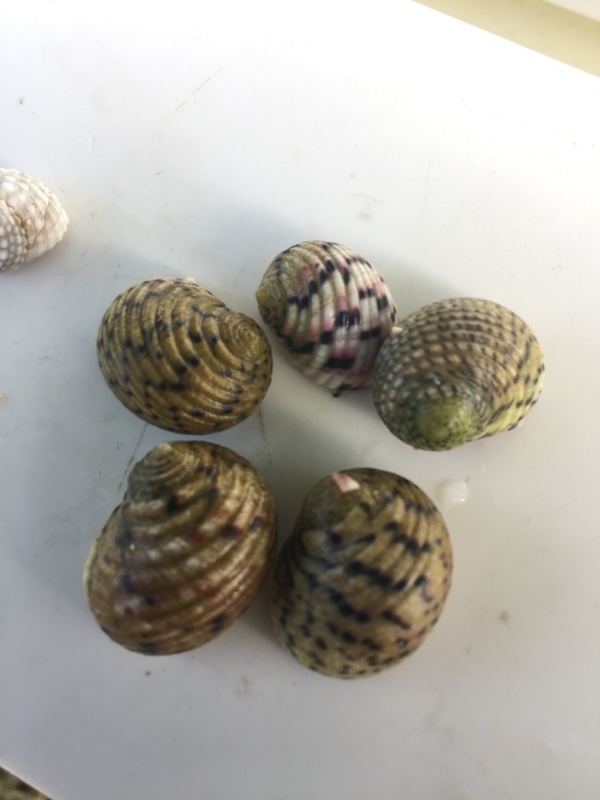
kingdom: Animalia
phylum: Mollusca
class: Gastropoda
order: Cycloneritida
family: Neritidae
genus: Nerita
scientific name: Nerita versicolor
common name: Four-tooth nerite
